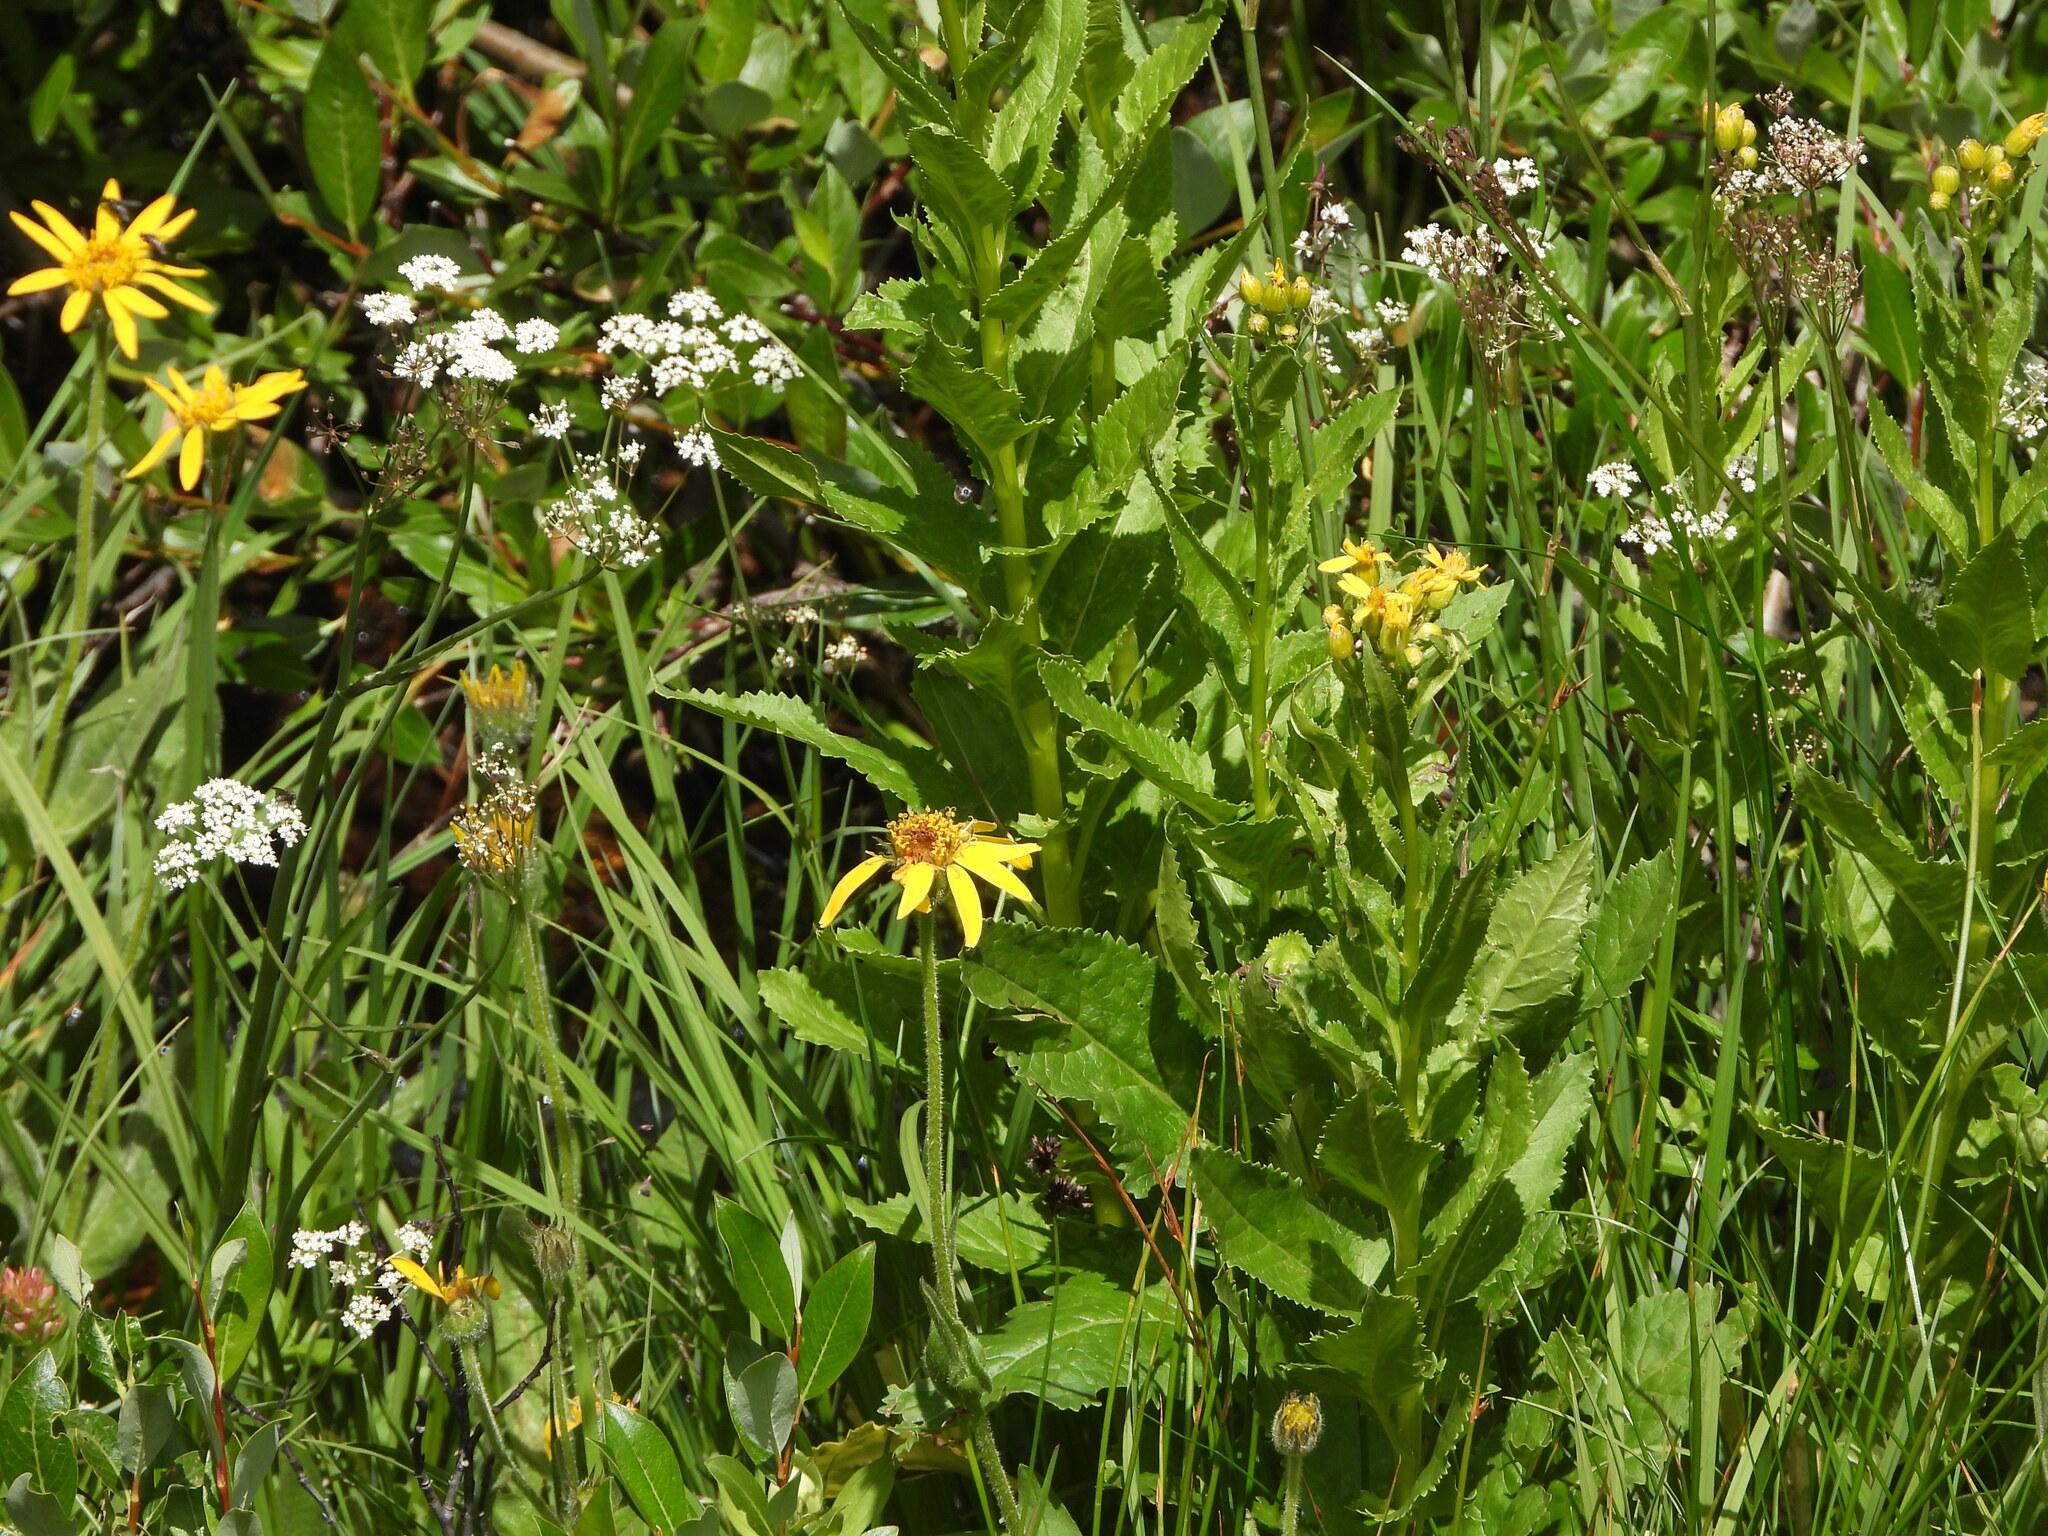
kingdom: Plantae
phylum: Tracheophyta
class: Magnoliopsida
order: Asterales
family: Asteraceae
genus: Senecio
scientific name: Senecio triangularis
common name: Arrowleaf butterweed
